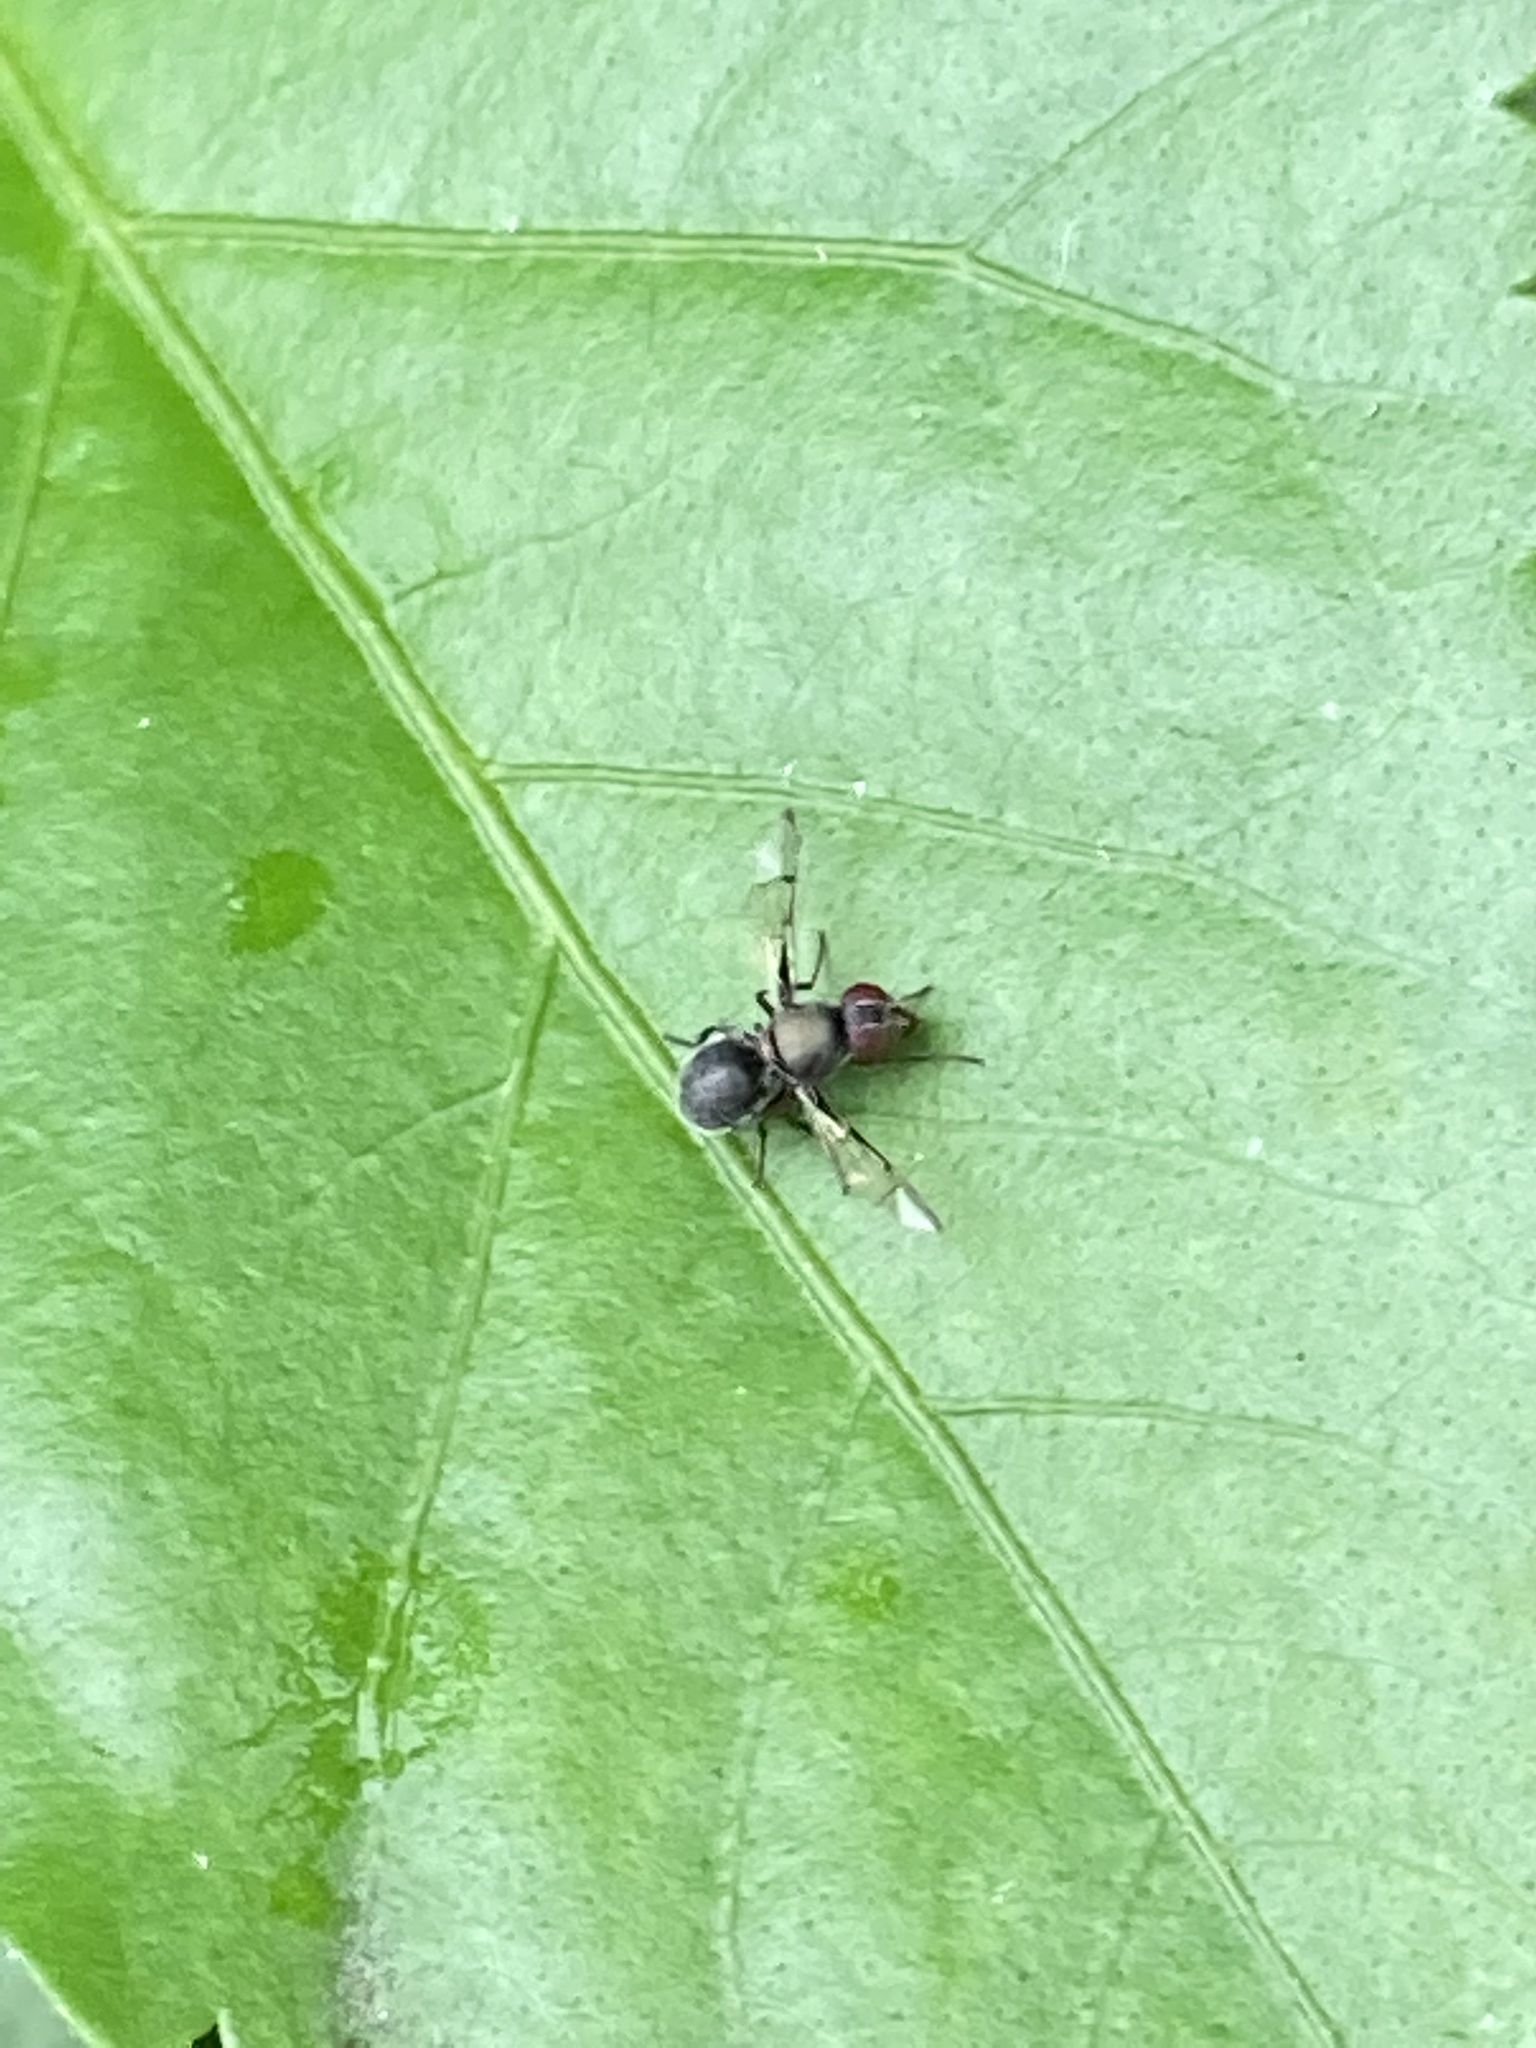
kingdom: Animalia
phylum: Arthropoda
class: Insecta
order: Diptera
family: Platystomatidae
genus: Pogonortalis
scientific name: Pogonortalis doclea
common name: Boatman fly
